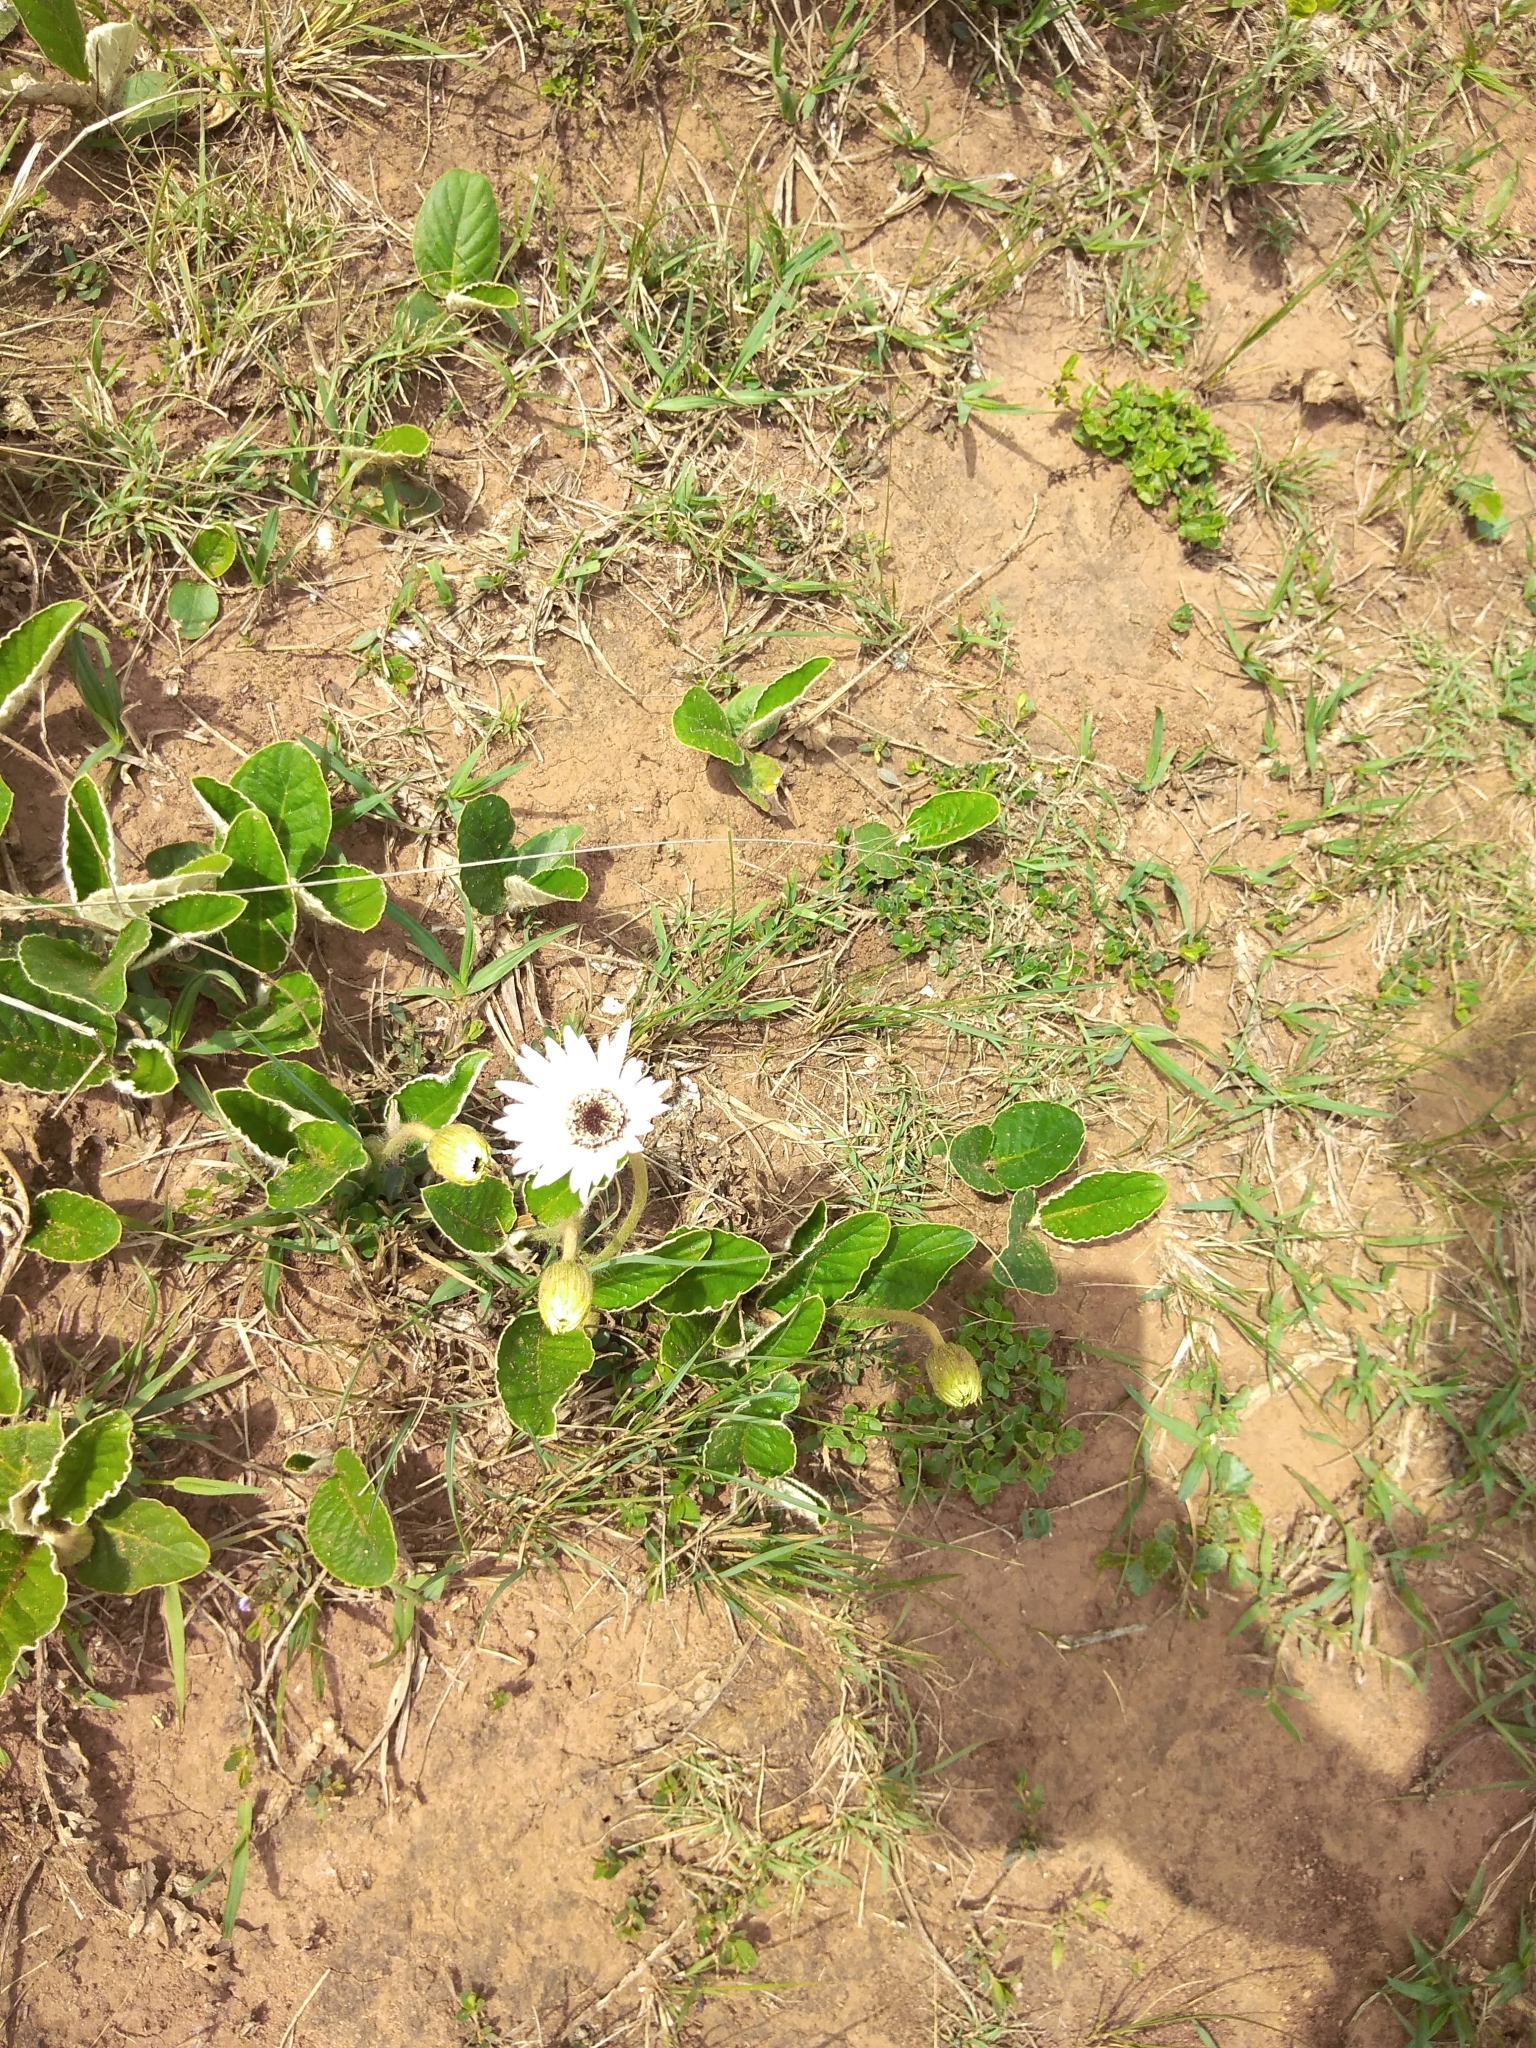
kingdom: Plantae
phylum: Tracheophyta
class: Magnoliopsida
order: Asterales
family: Asteraceae
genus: Gerbera
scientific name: Gerbera ambigua
